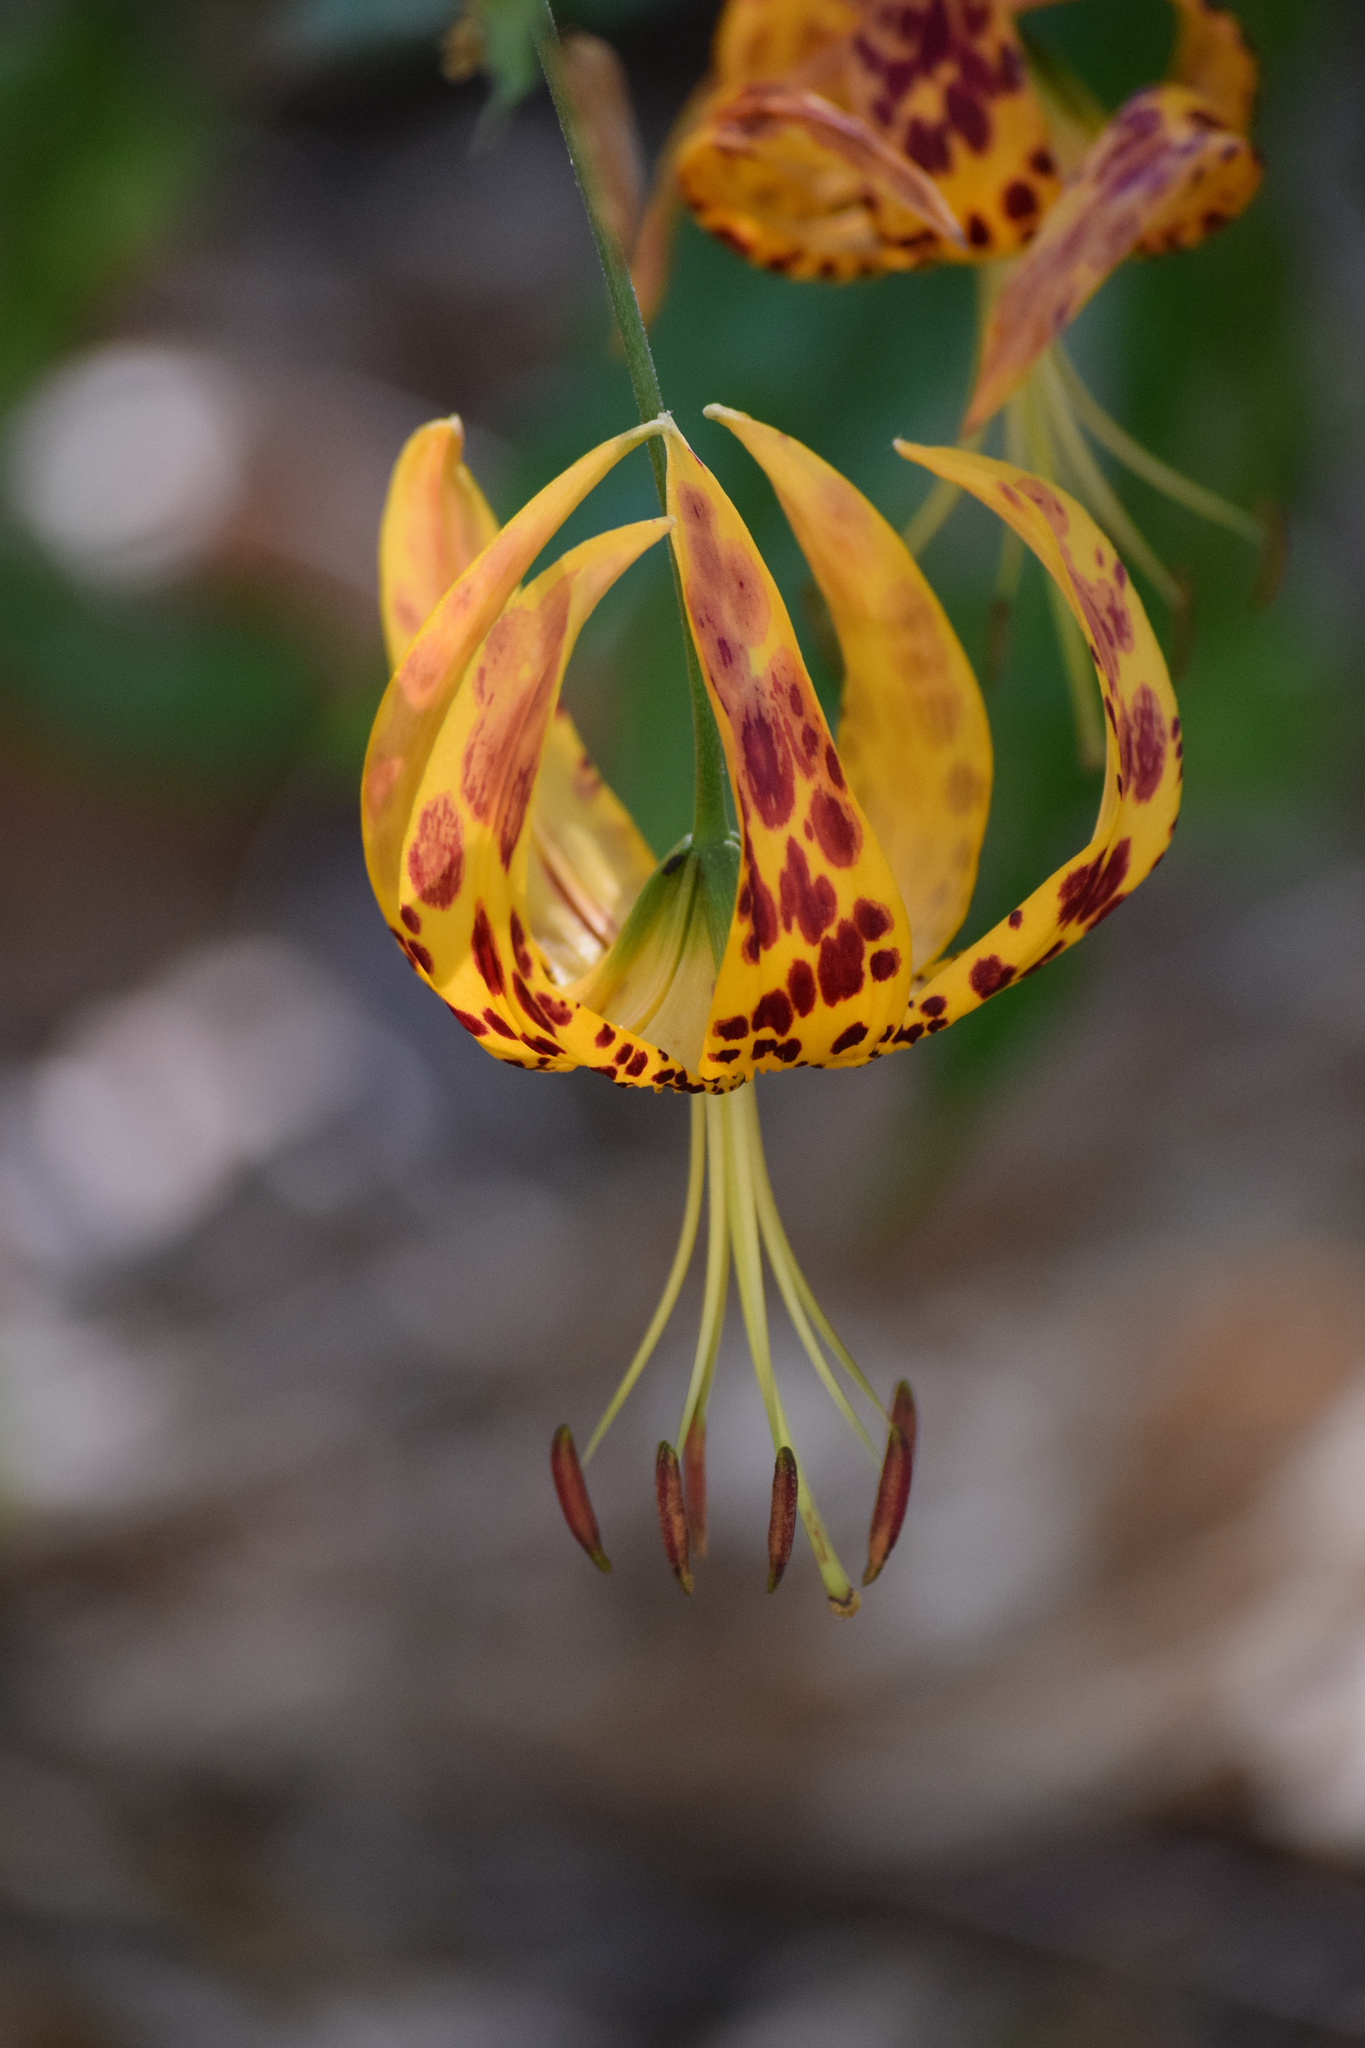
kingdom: Plantae
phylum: Tracheophyta
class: Liliopsida
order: Liliales
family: Liliaceae
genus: Lilium
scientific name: Lilium humboldtii
